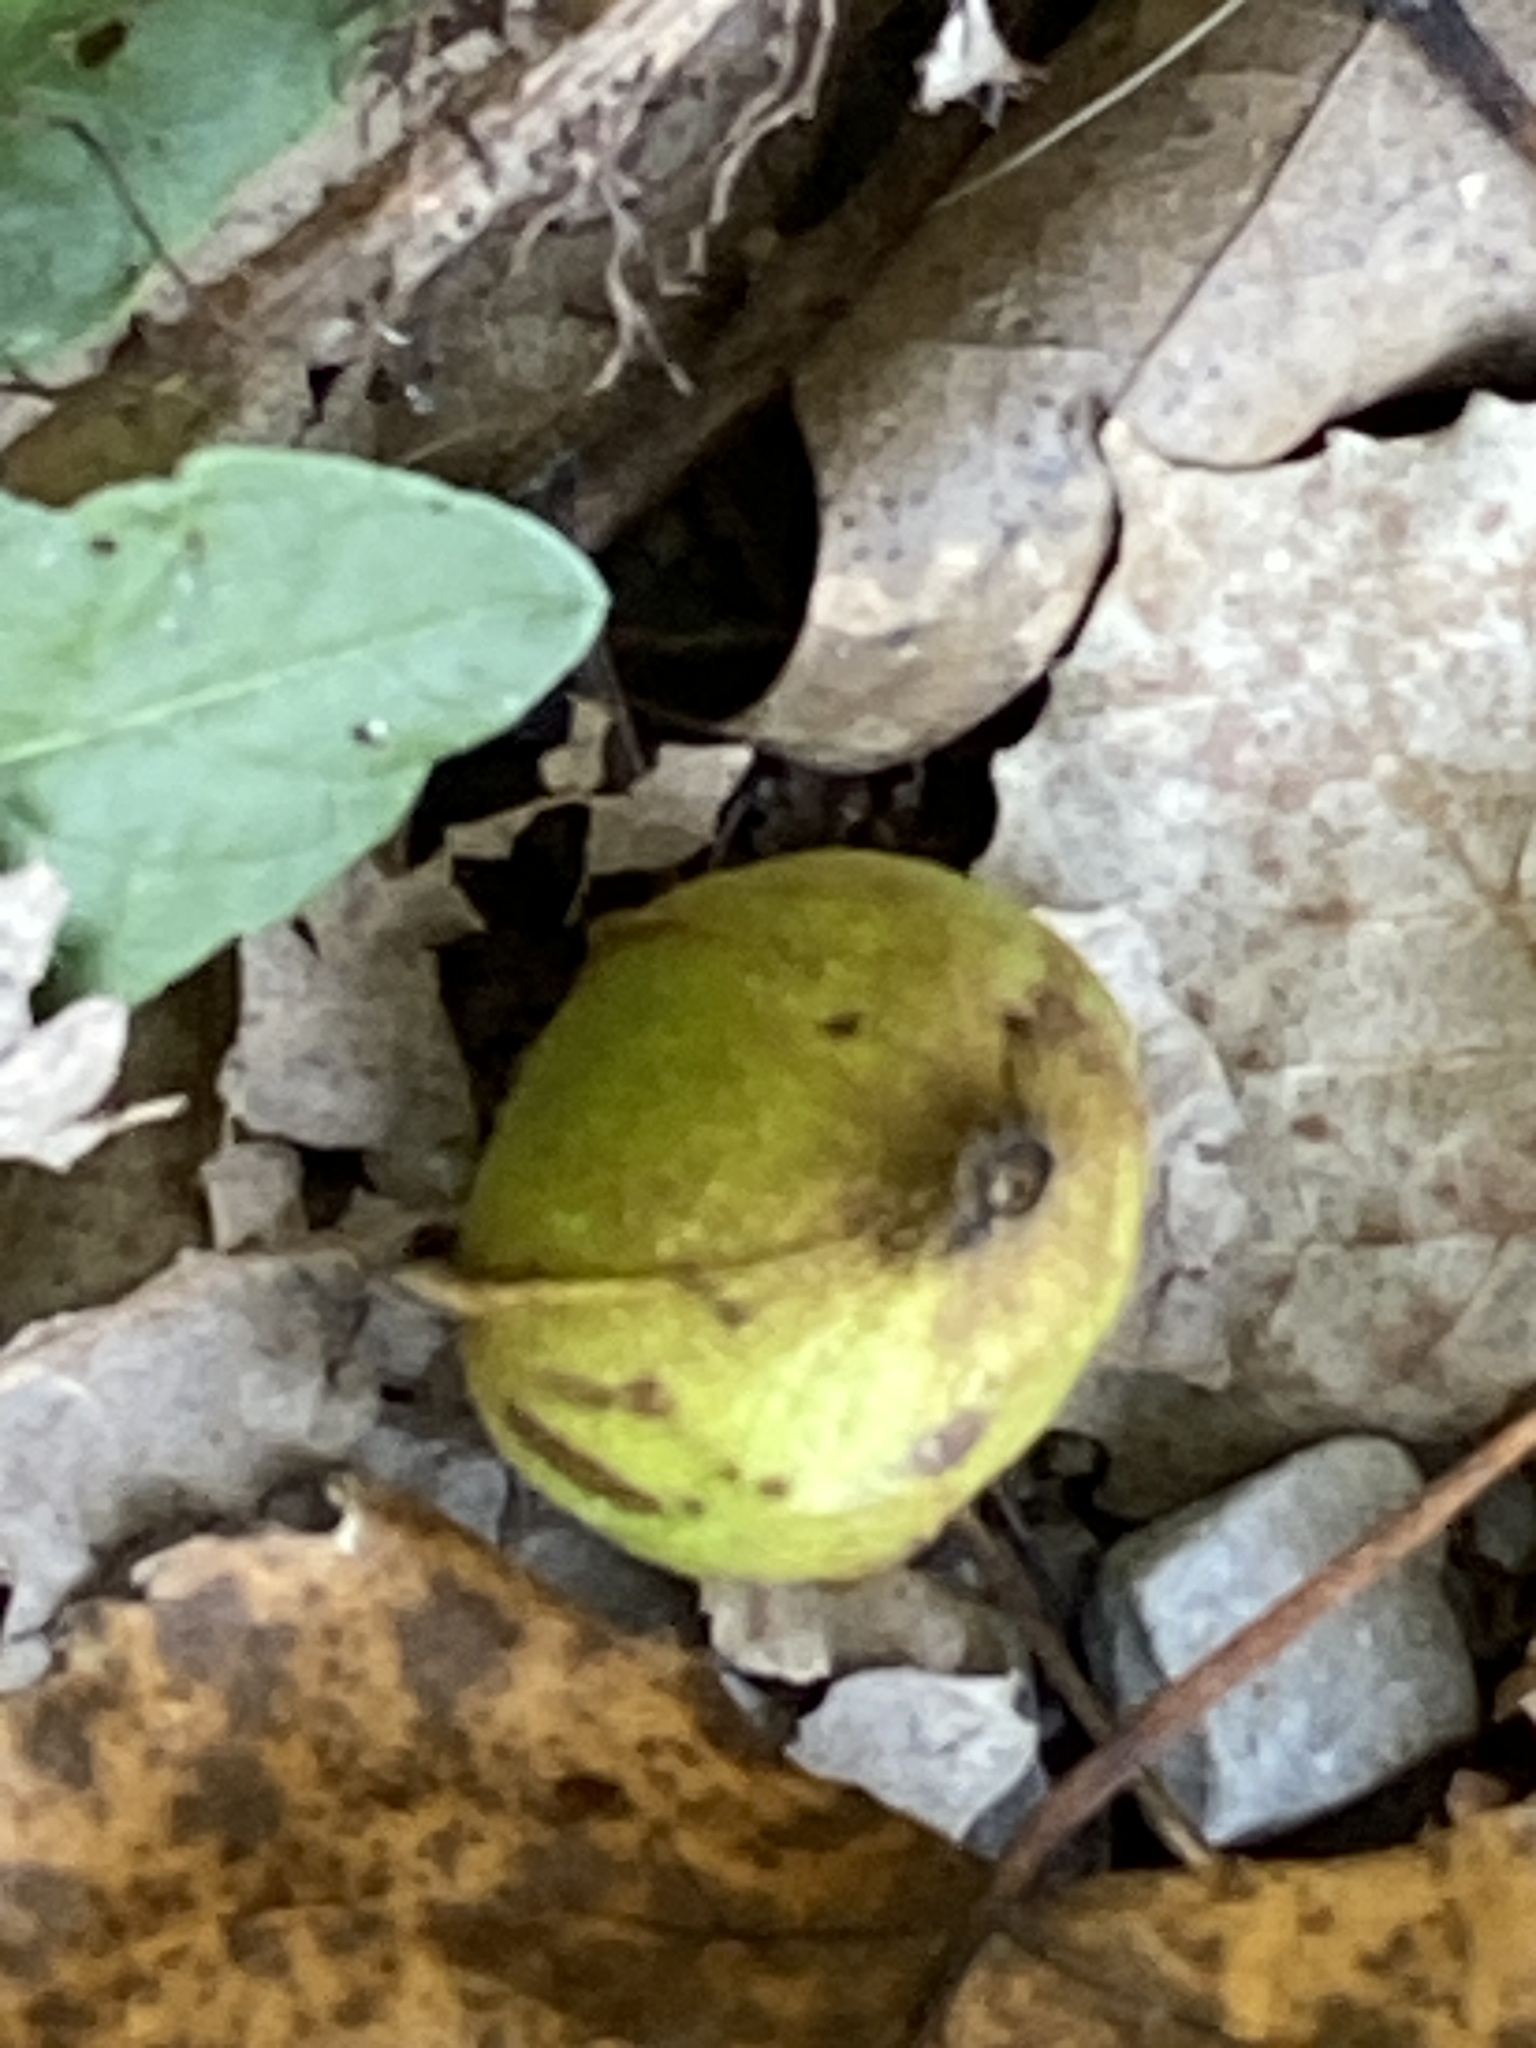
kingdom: Plantae
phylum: Tracheophyta
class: Magnoliopsida
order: Fagales
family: Juglandaceae
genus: Carya
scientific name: Carya cordiformis
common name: Bitternut hickory
